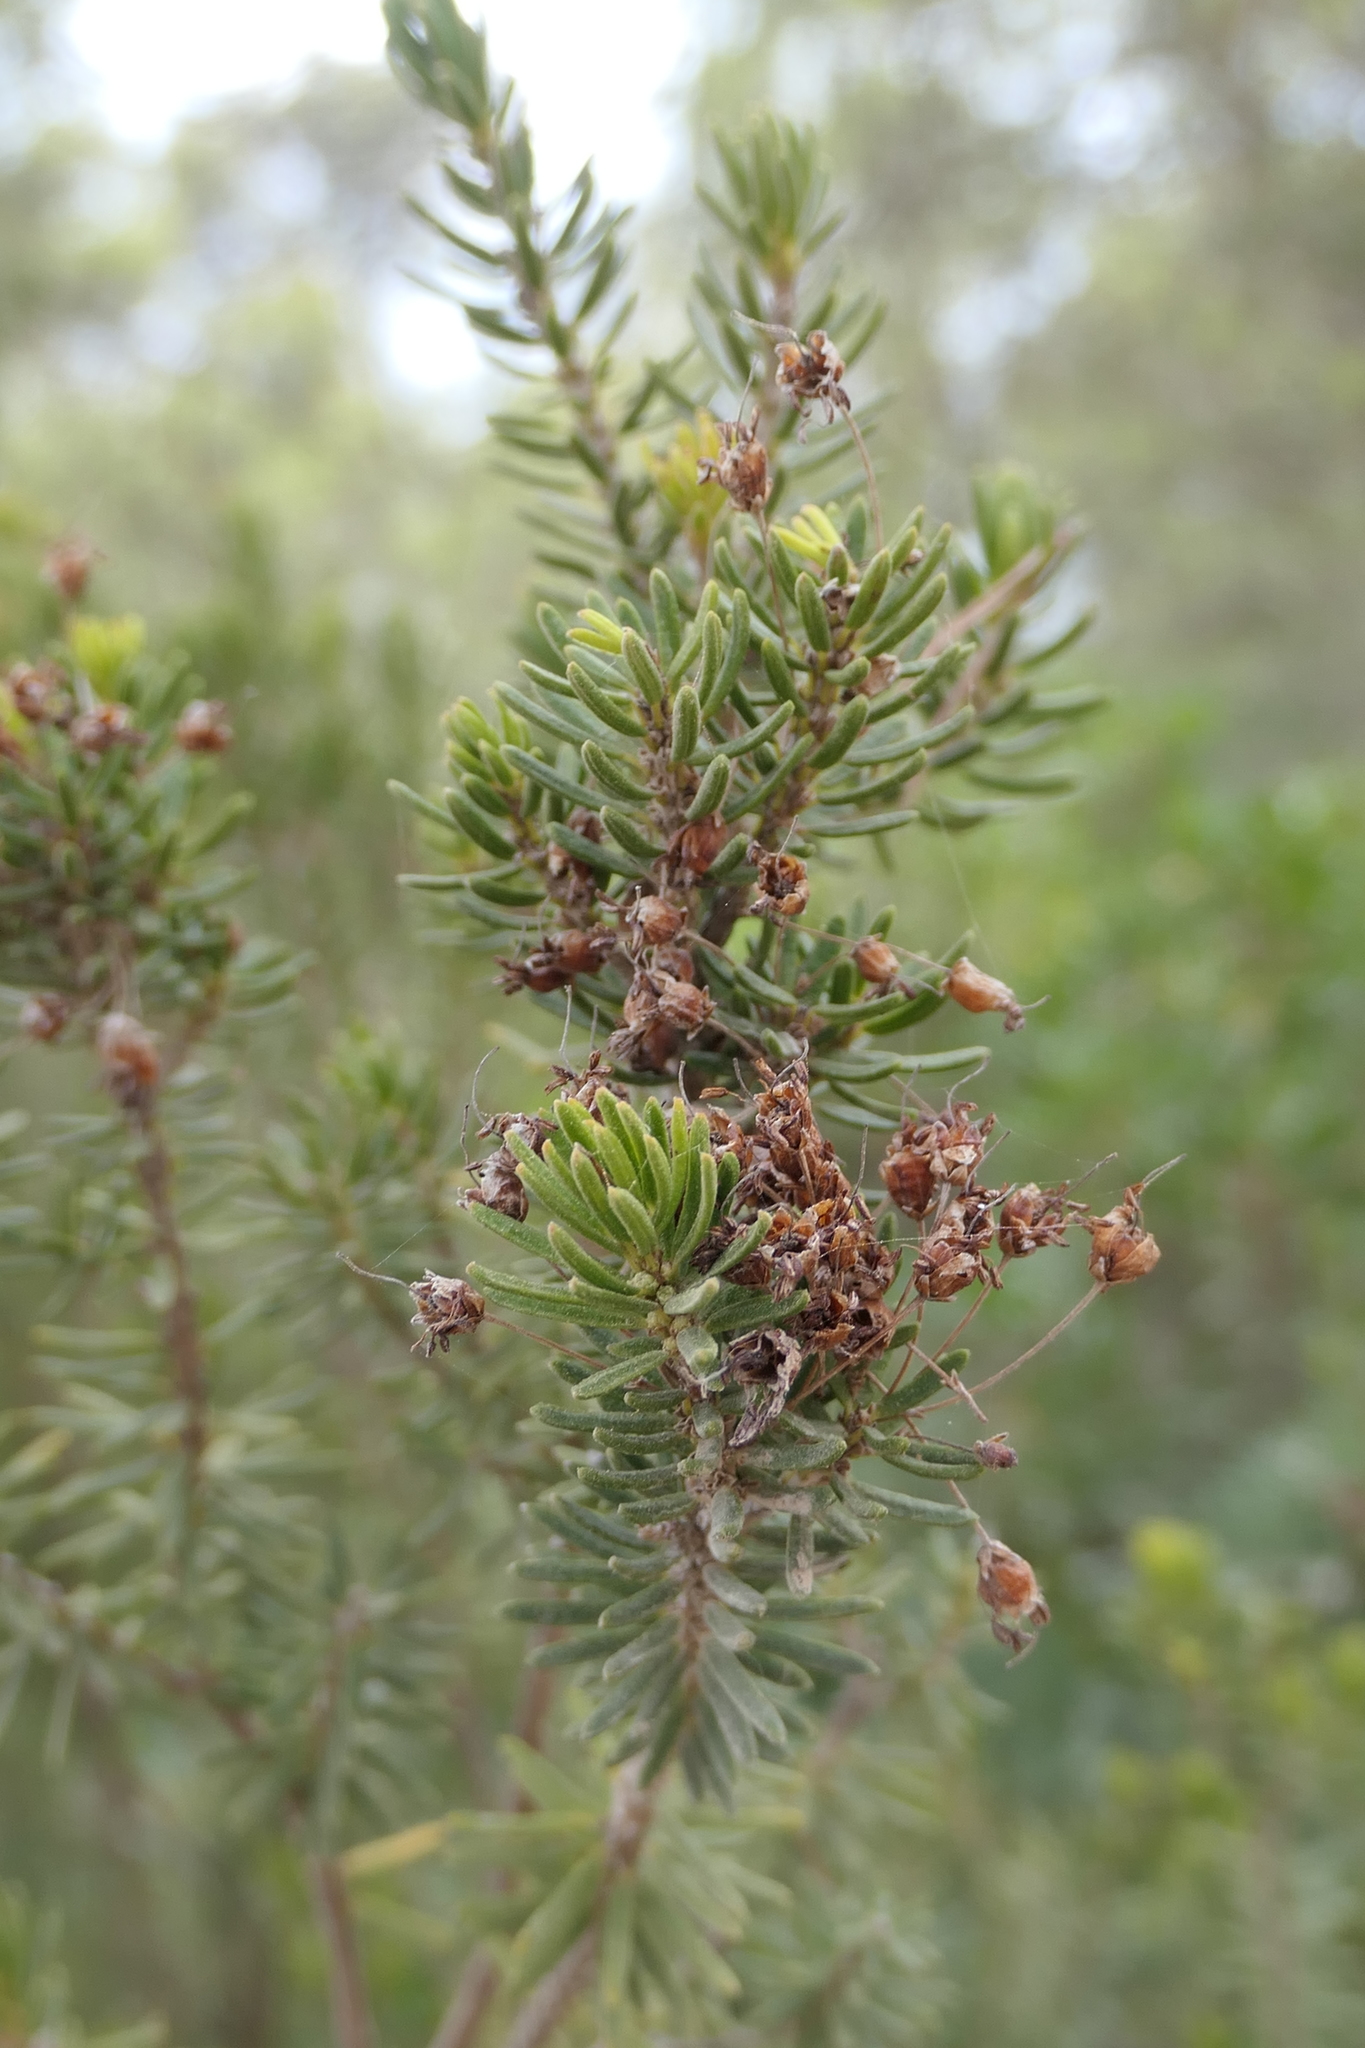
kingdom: Plantae
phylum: Tracheophyta
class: Magnoliopsida
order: Ericales
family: Ericaceae
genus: Erica
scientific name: Erica multiflora
